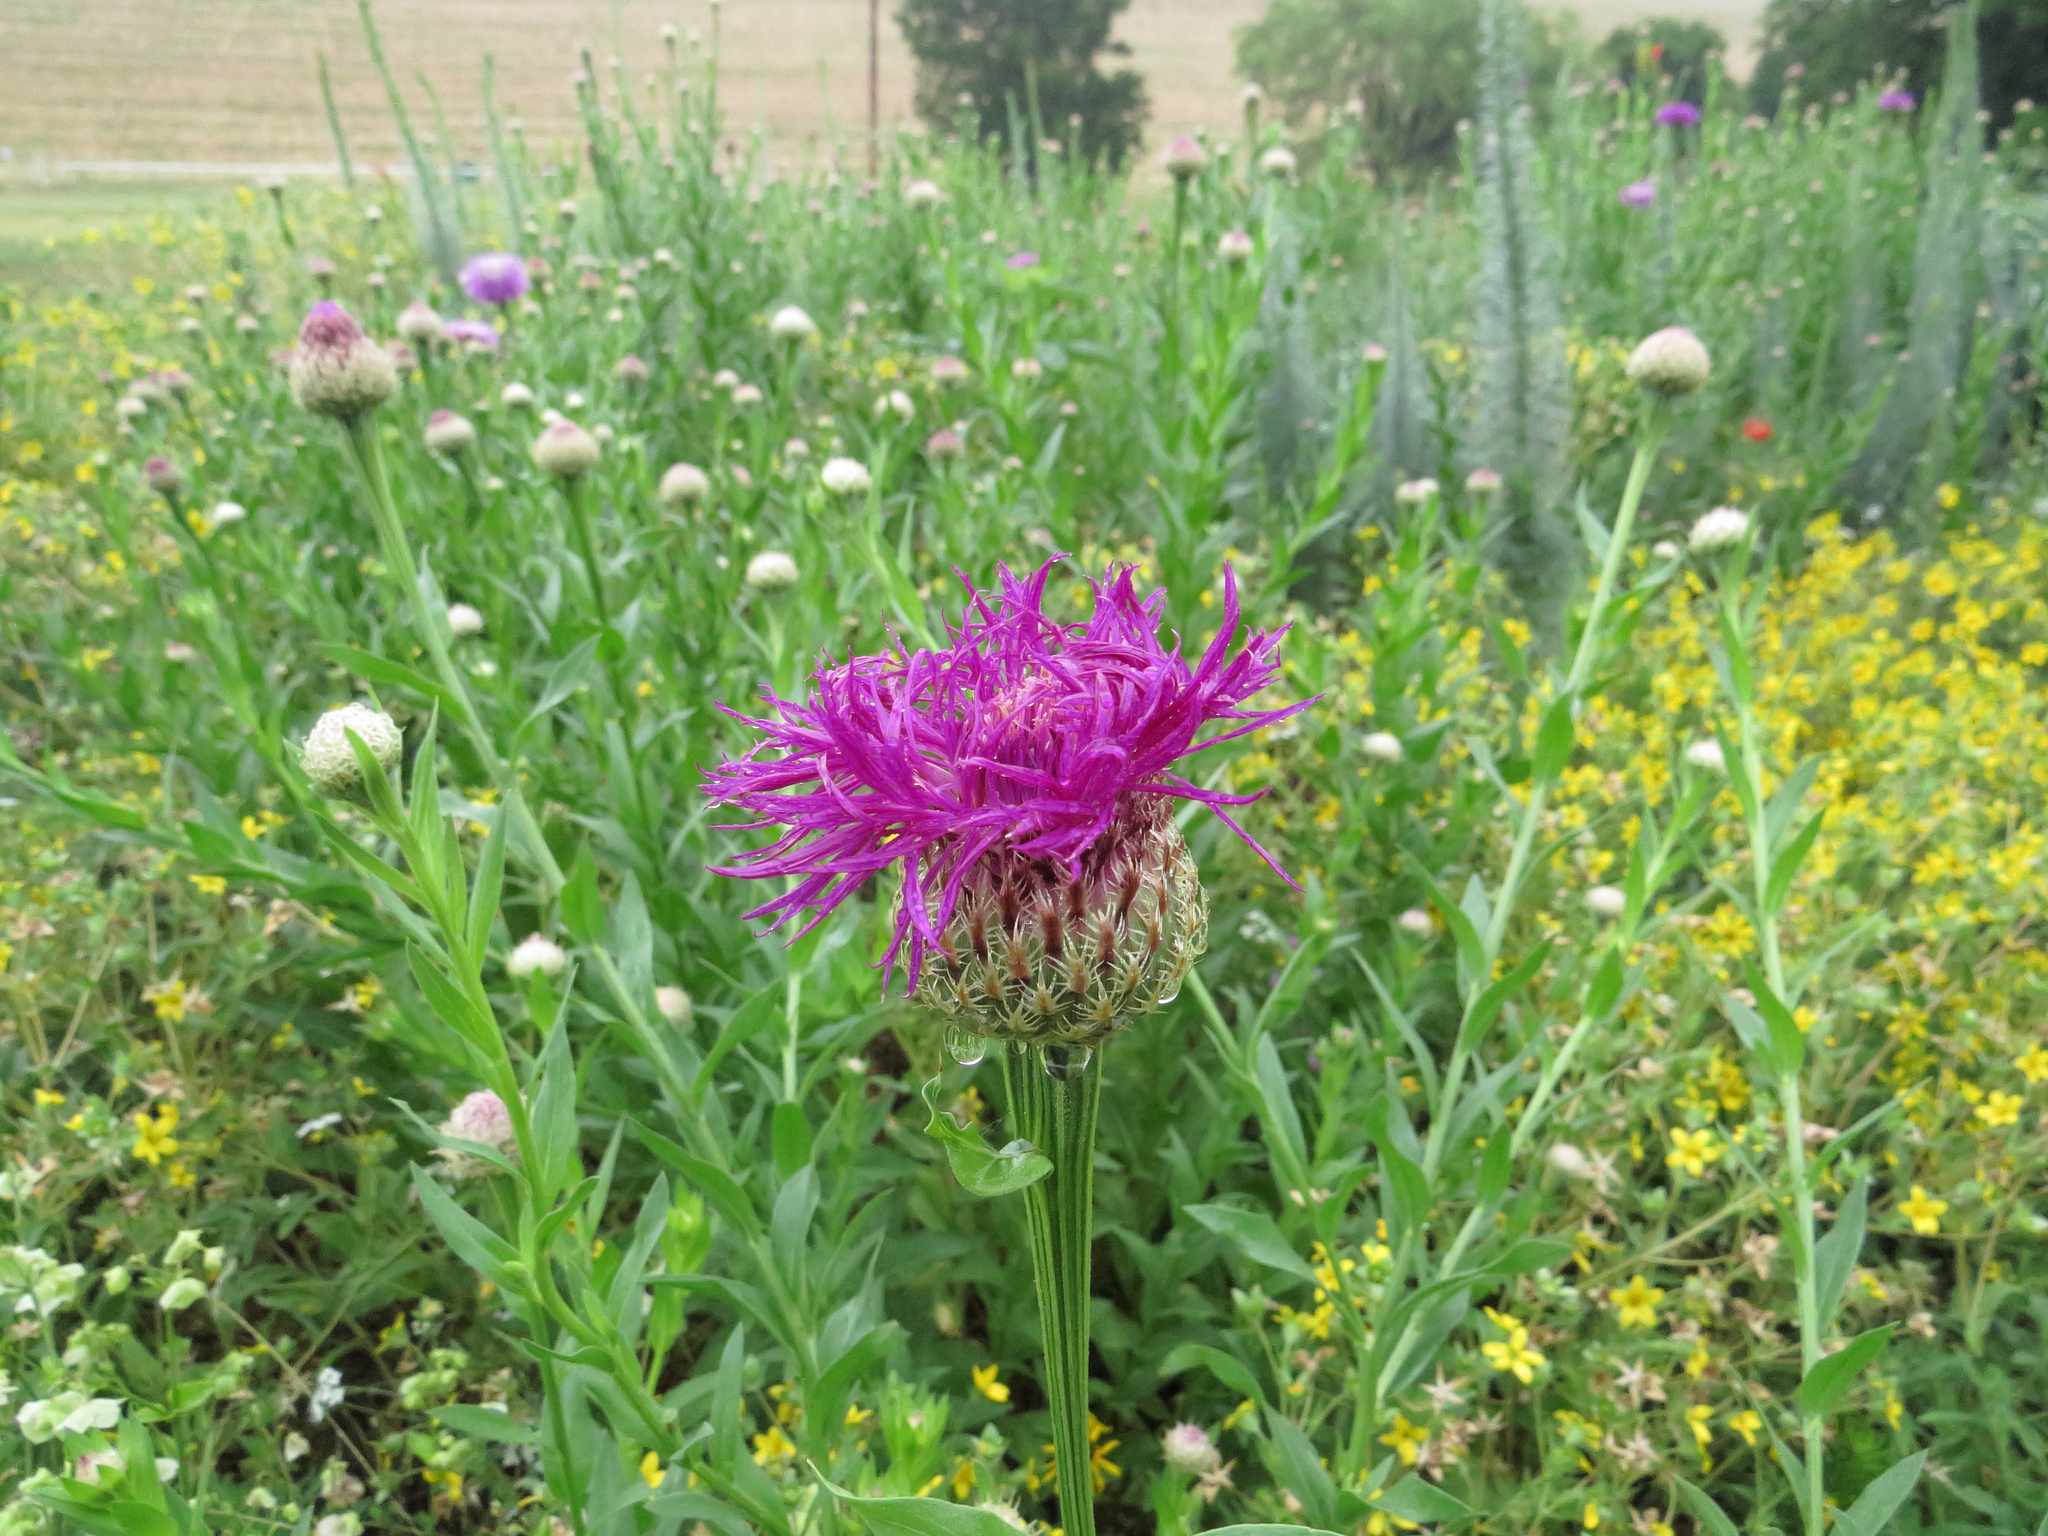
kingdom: Plantae
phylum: Tracheophyta
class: Magnoliopsida
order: Asterales
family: Asteraceae
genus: Plectocephalus
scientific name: Plectocephalus americanus
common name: American basket-flower
